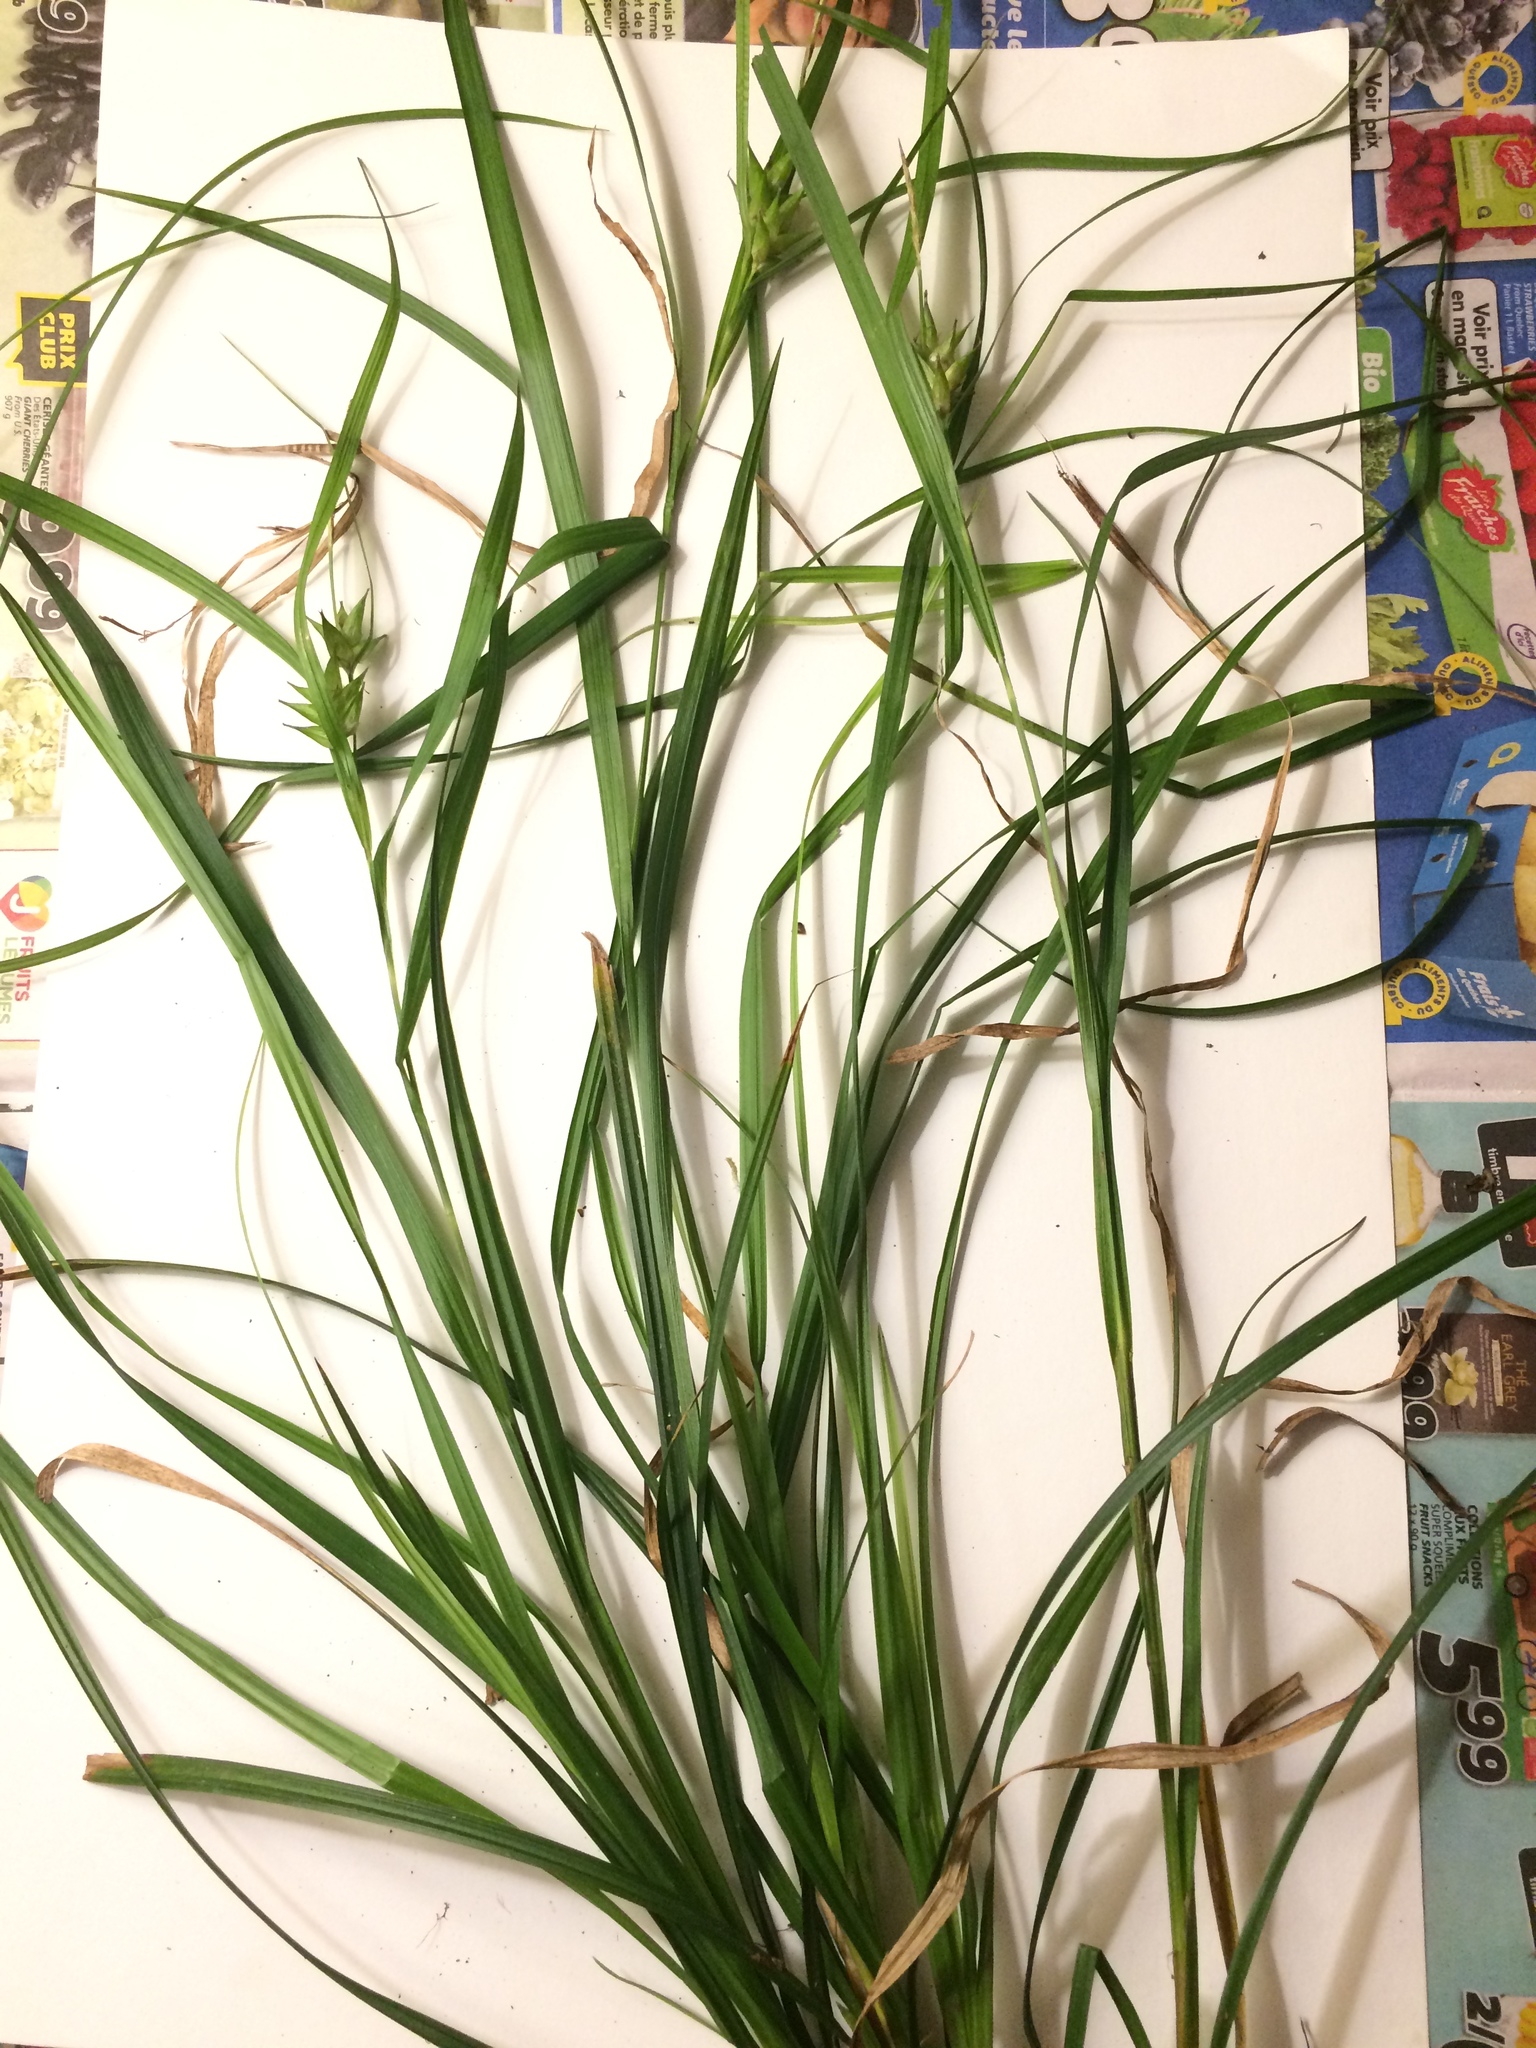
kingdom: Plantae
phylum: Tracheophyta
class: Liliopsida
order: Poales
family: Cyperaceae
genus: Carex
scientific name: Carex intumescens
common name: Greater bladder sedge
